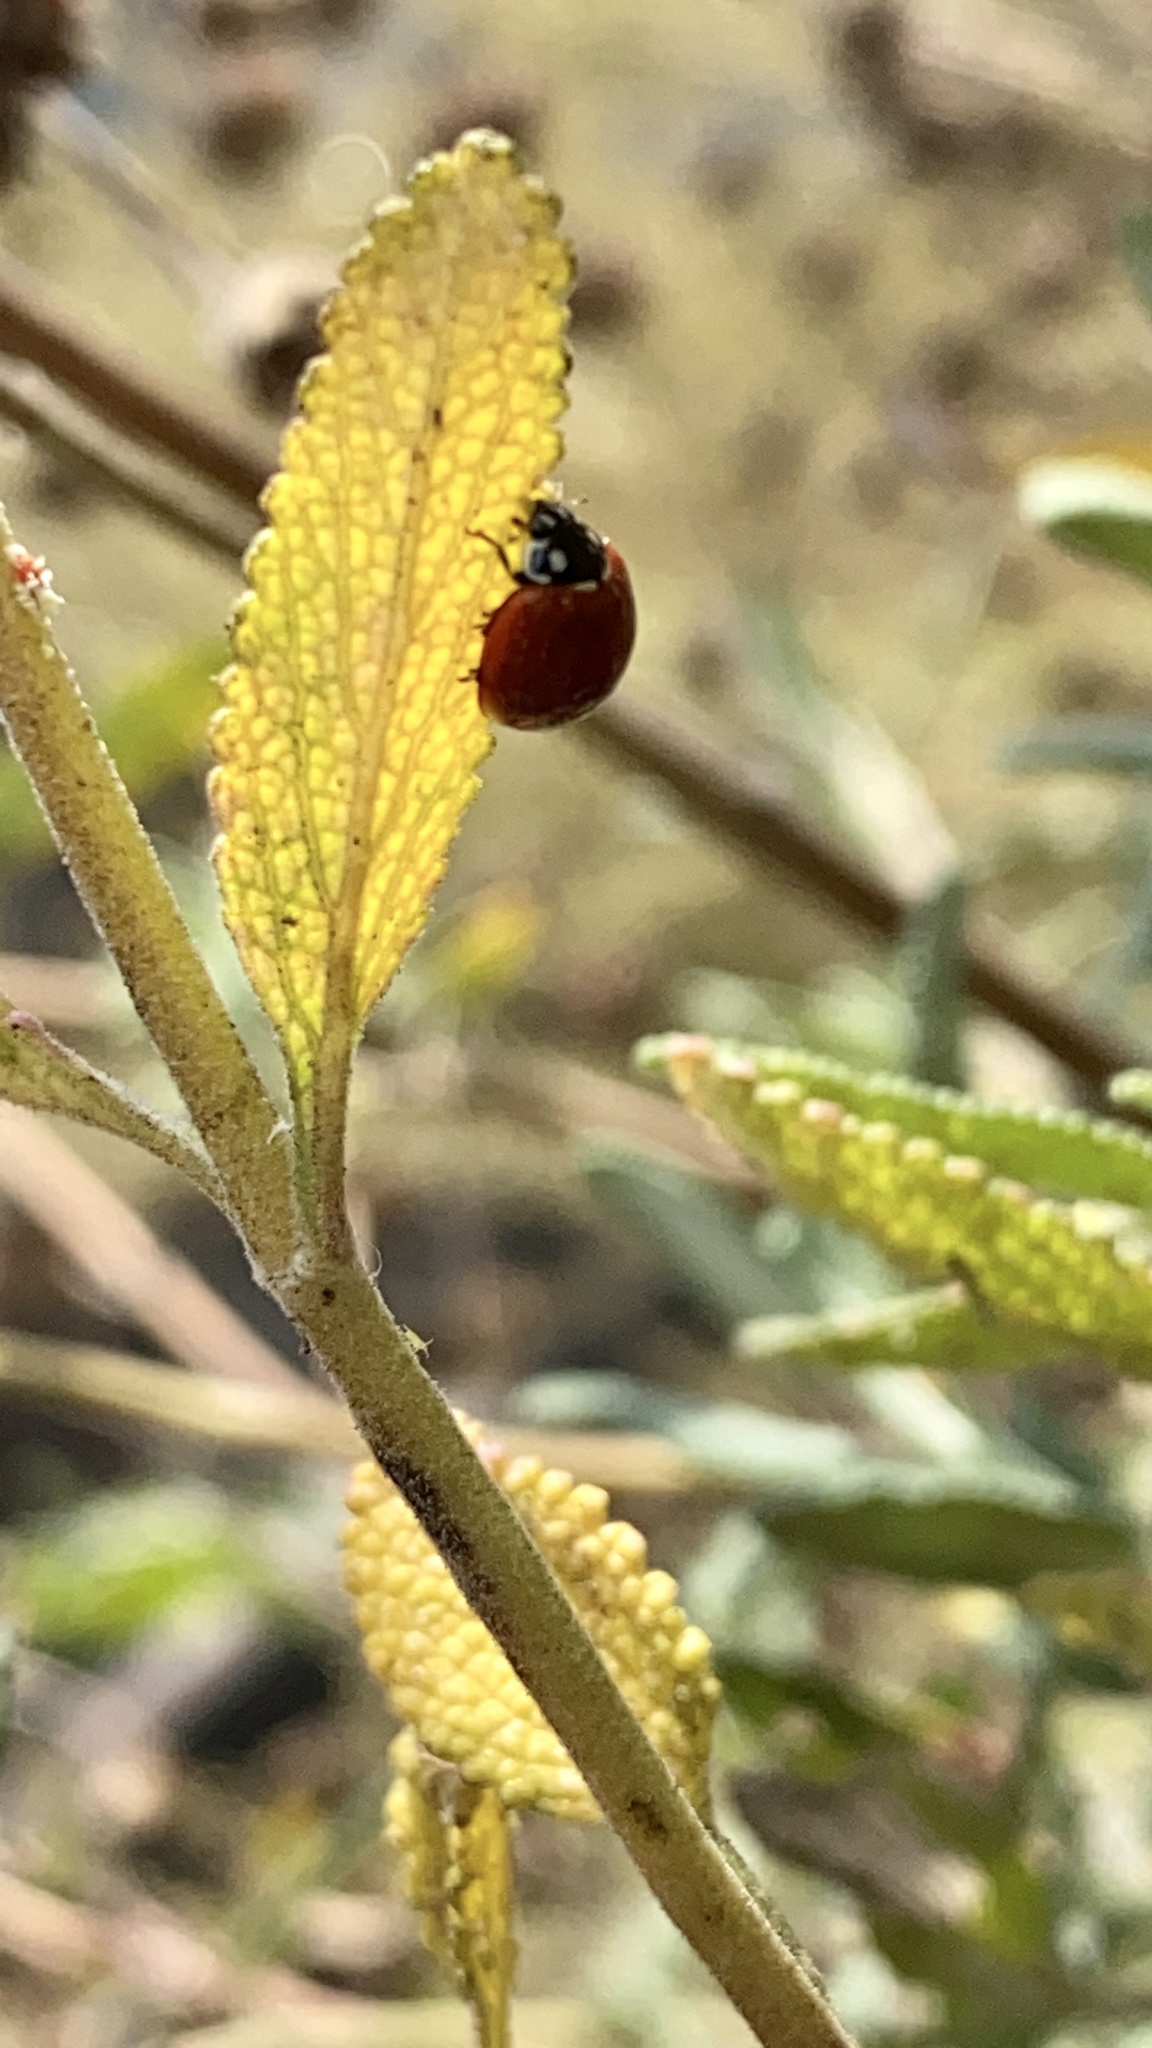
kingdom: Animalia
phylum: Arthropoda
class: Insecta
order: Coleoptera
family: Coccinellidae
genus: Cycloneda
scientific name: Cycloneda sanguinea
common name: Ladybird beetle
